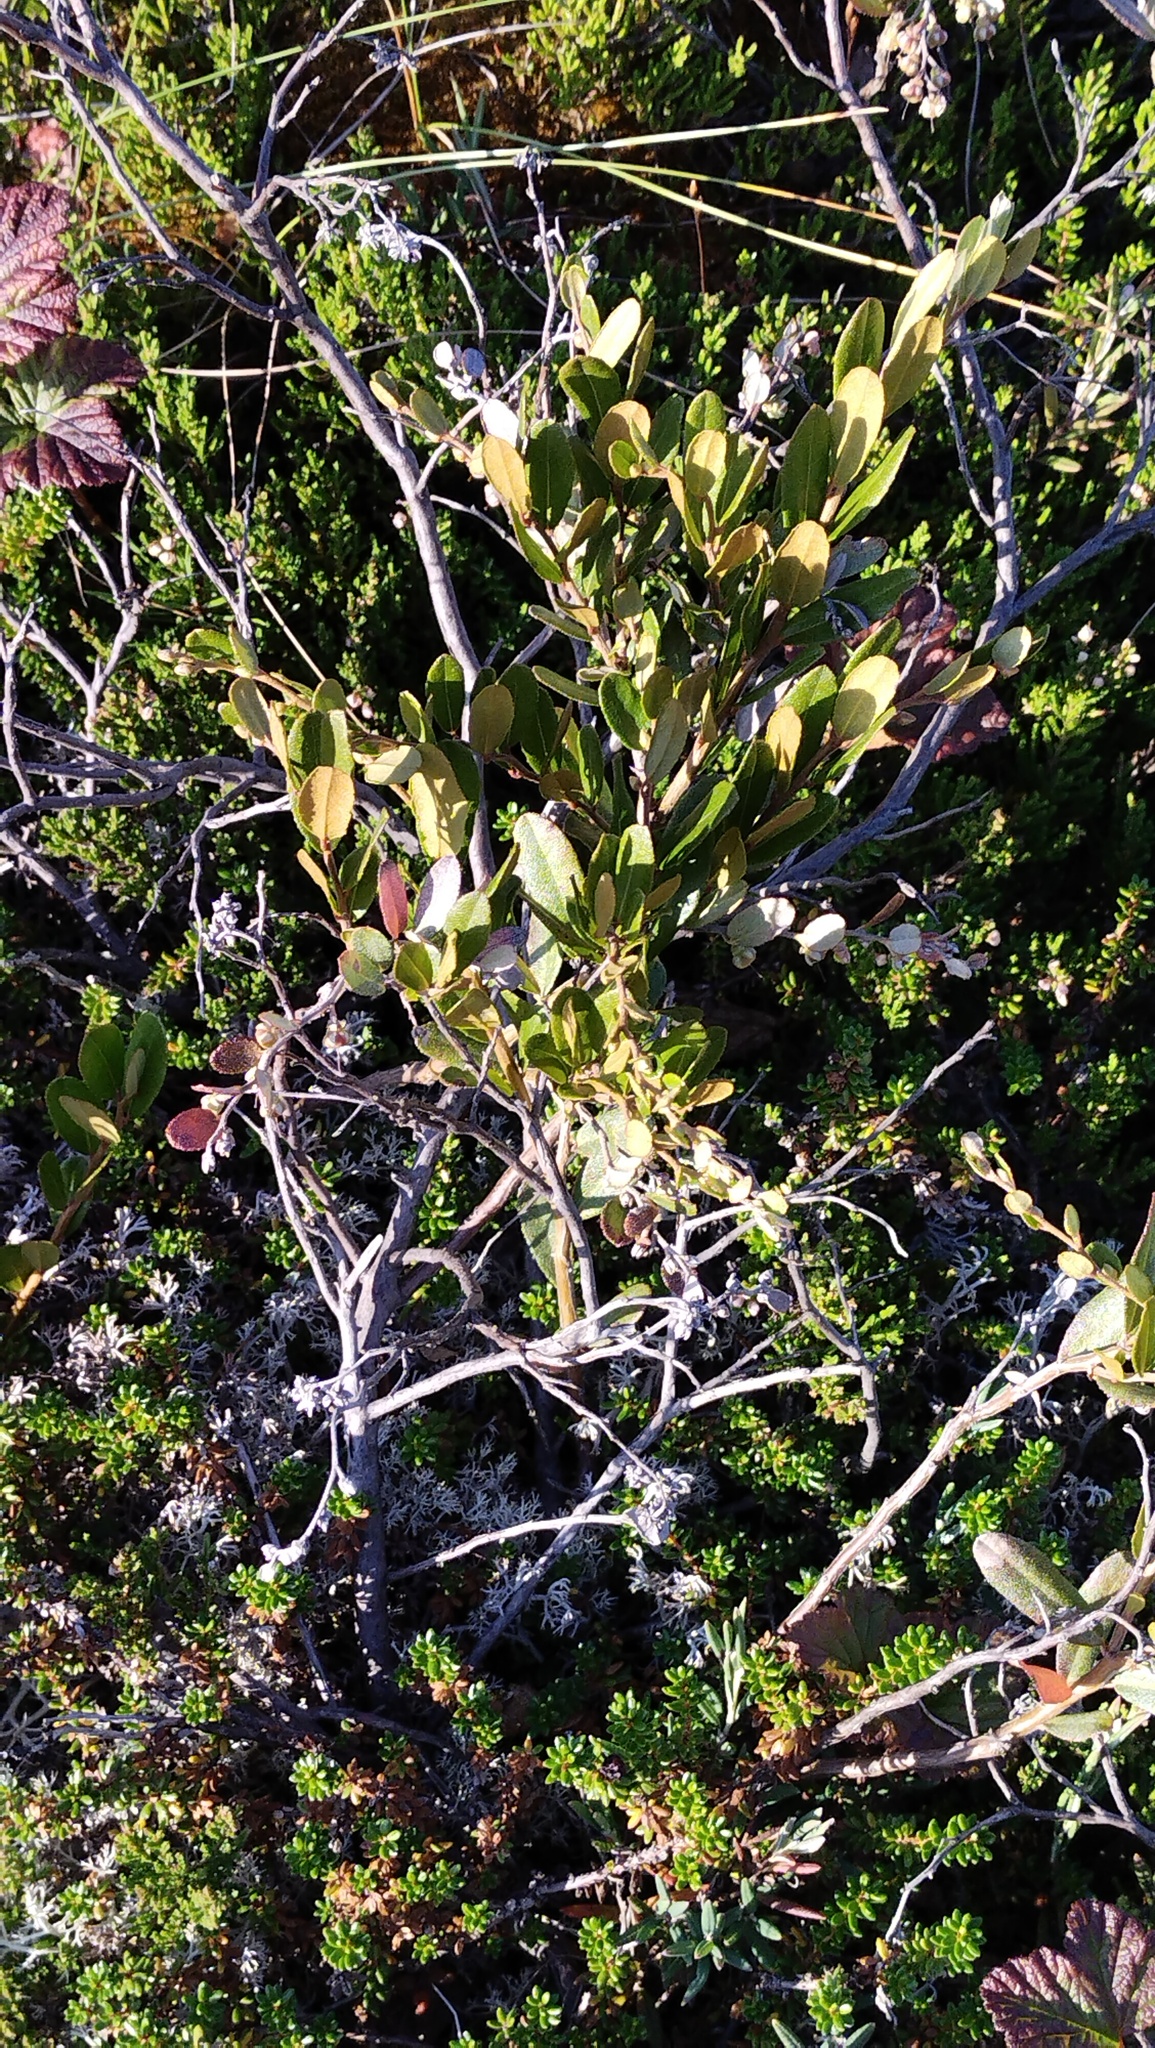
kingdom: Plantae
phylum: Tracheophyta
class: Magnoliopsida
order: Ericales
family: Ericaceae
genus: Chamaedaphne
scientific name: Chamaedaphne calyculata
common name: Leatherleaf
